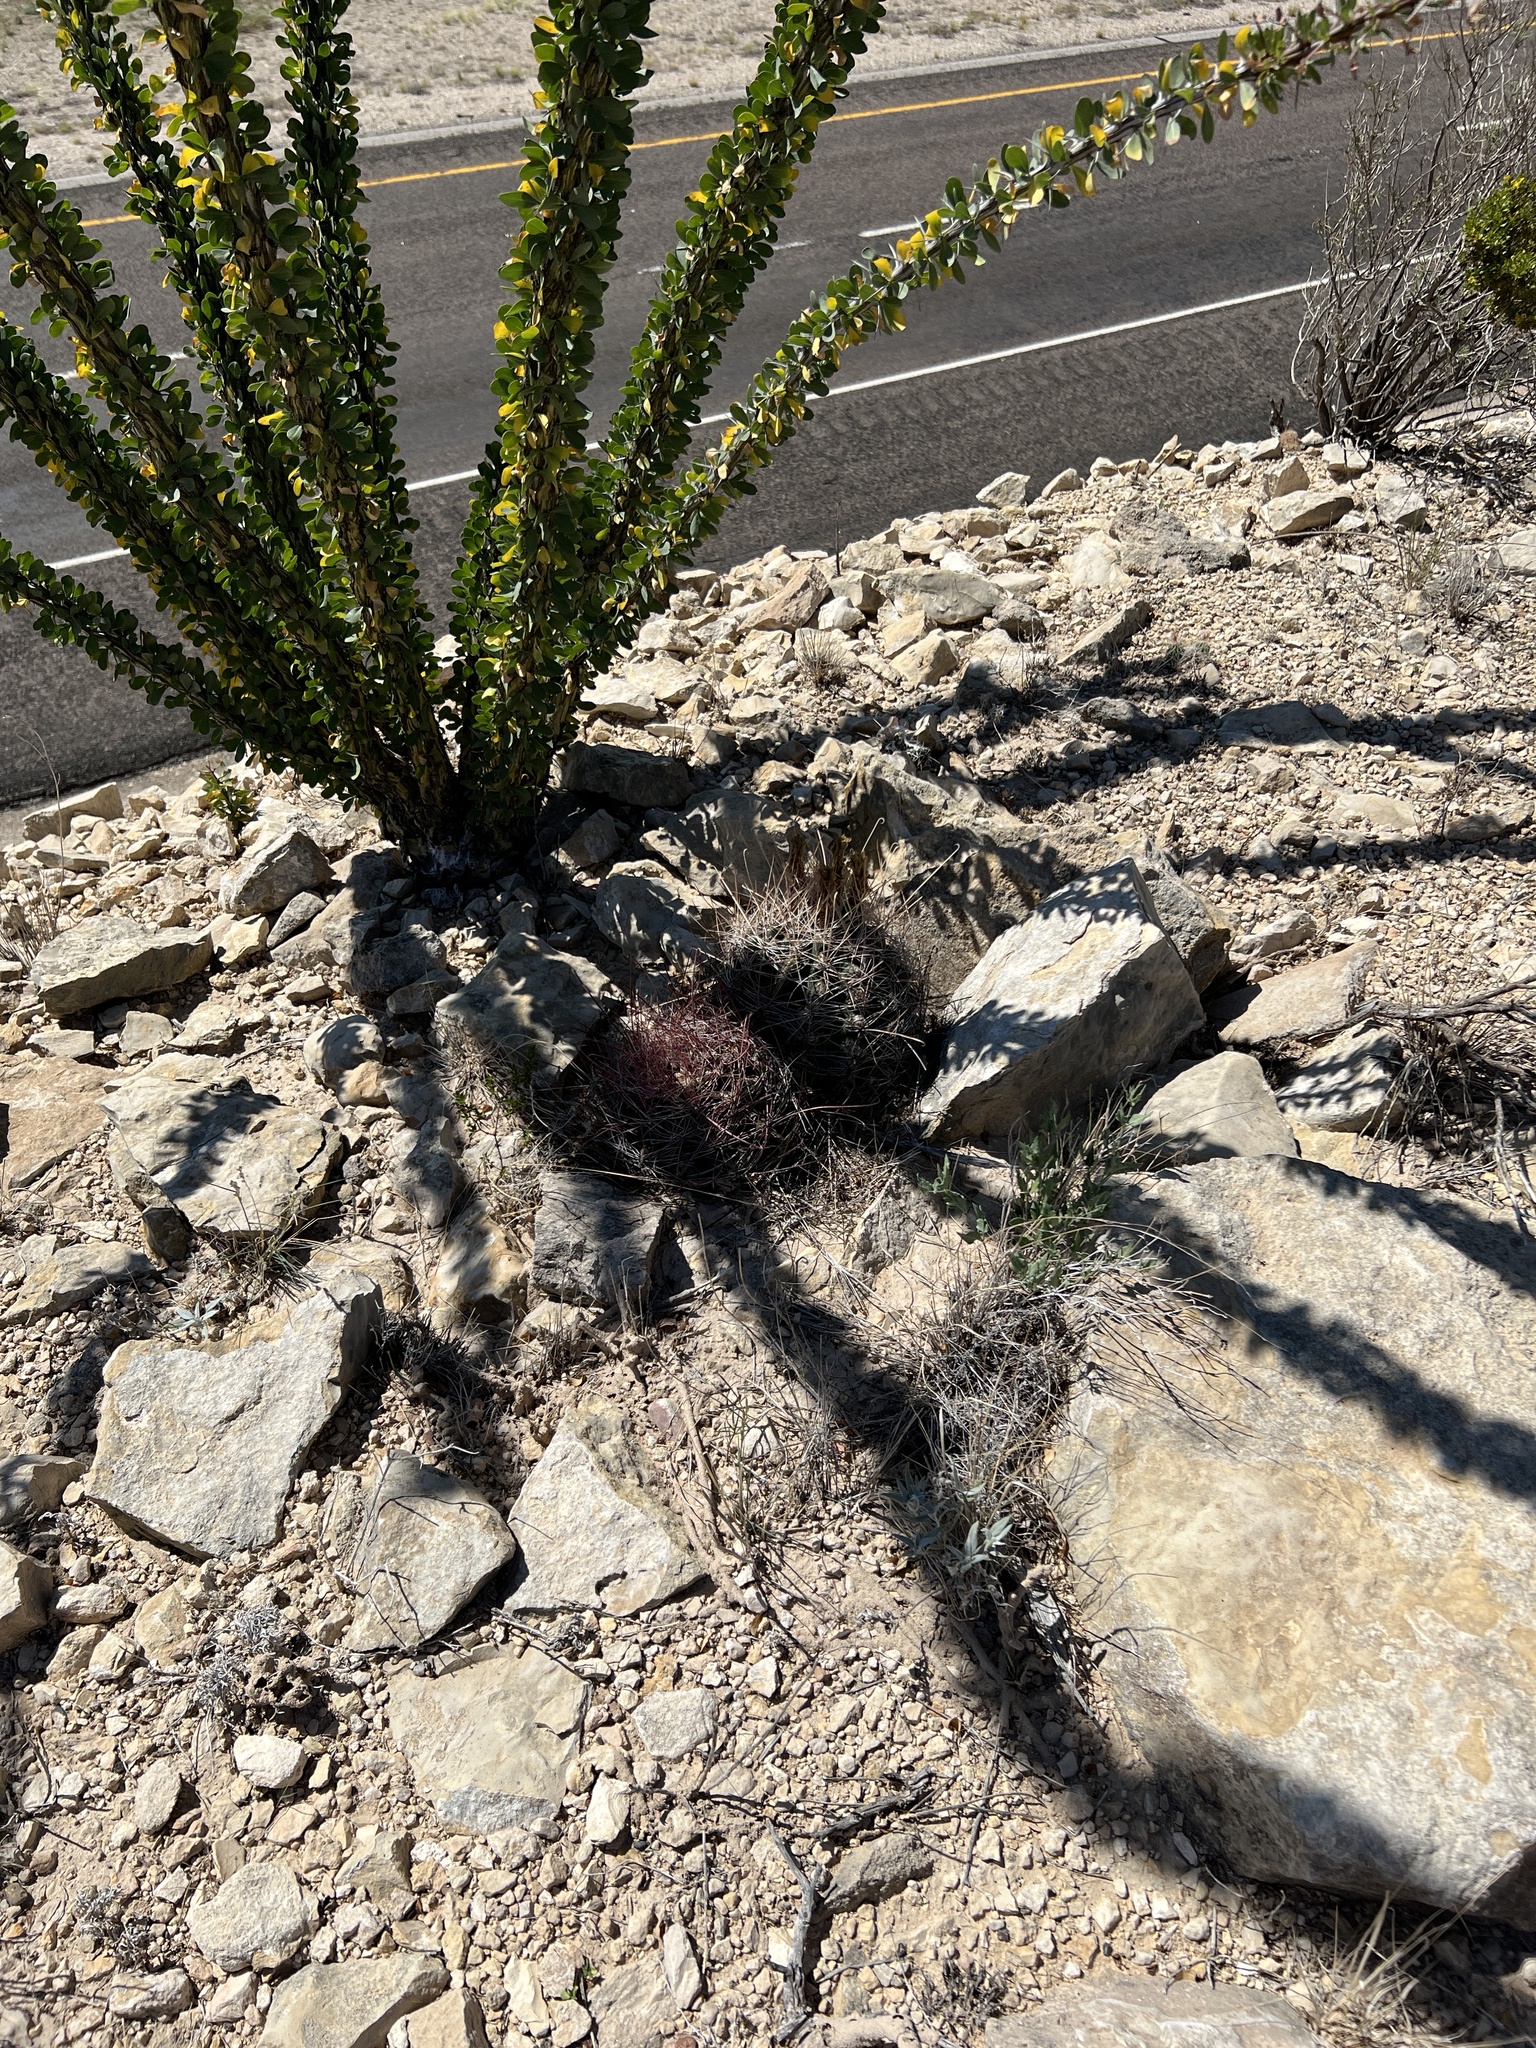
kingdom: Plantae
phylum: Tracheophyta
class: Magnoliopsida
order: Caryophyllales
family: Cactaceae
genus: Bisnaga
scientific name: Bisnaga hamatacantha
